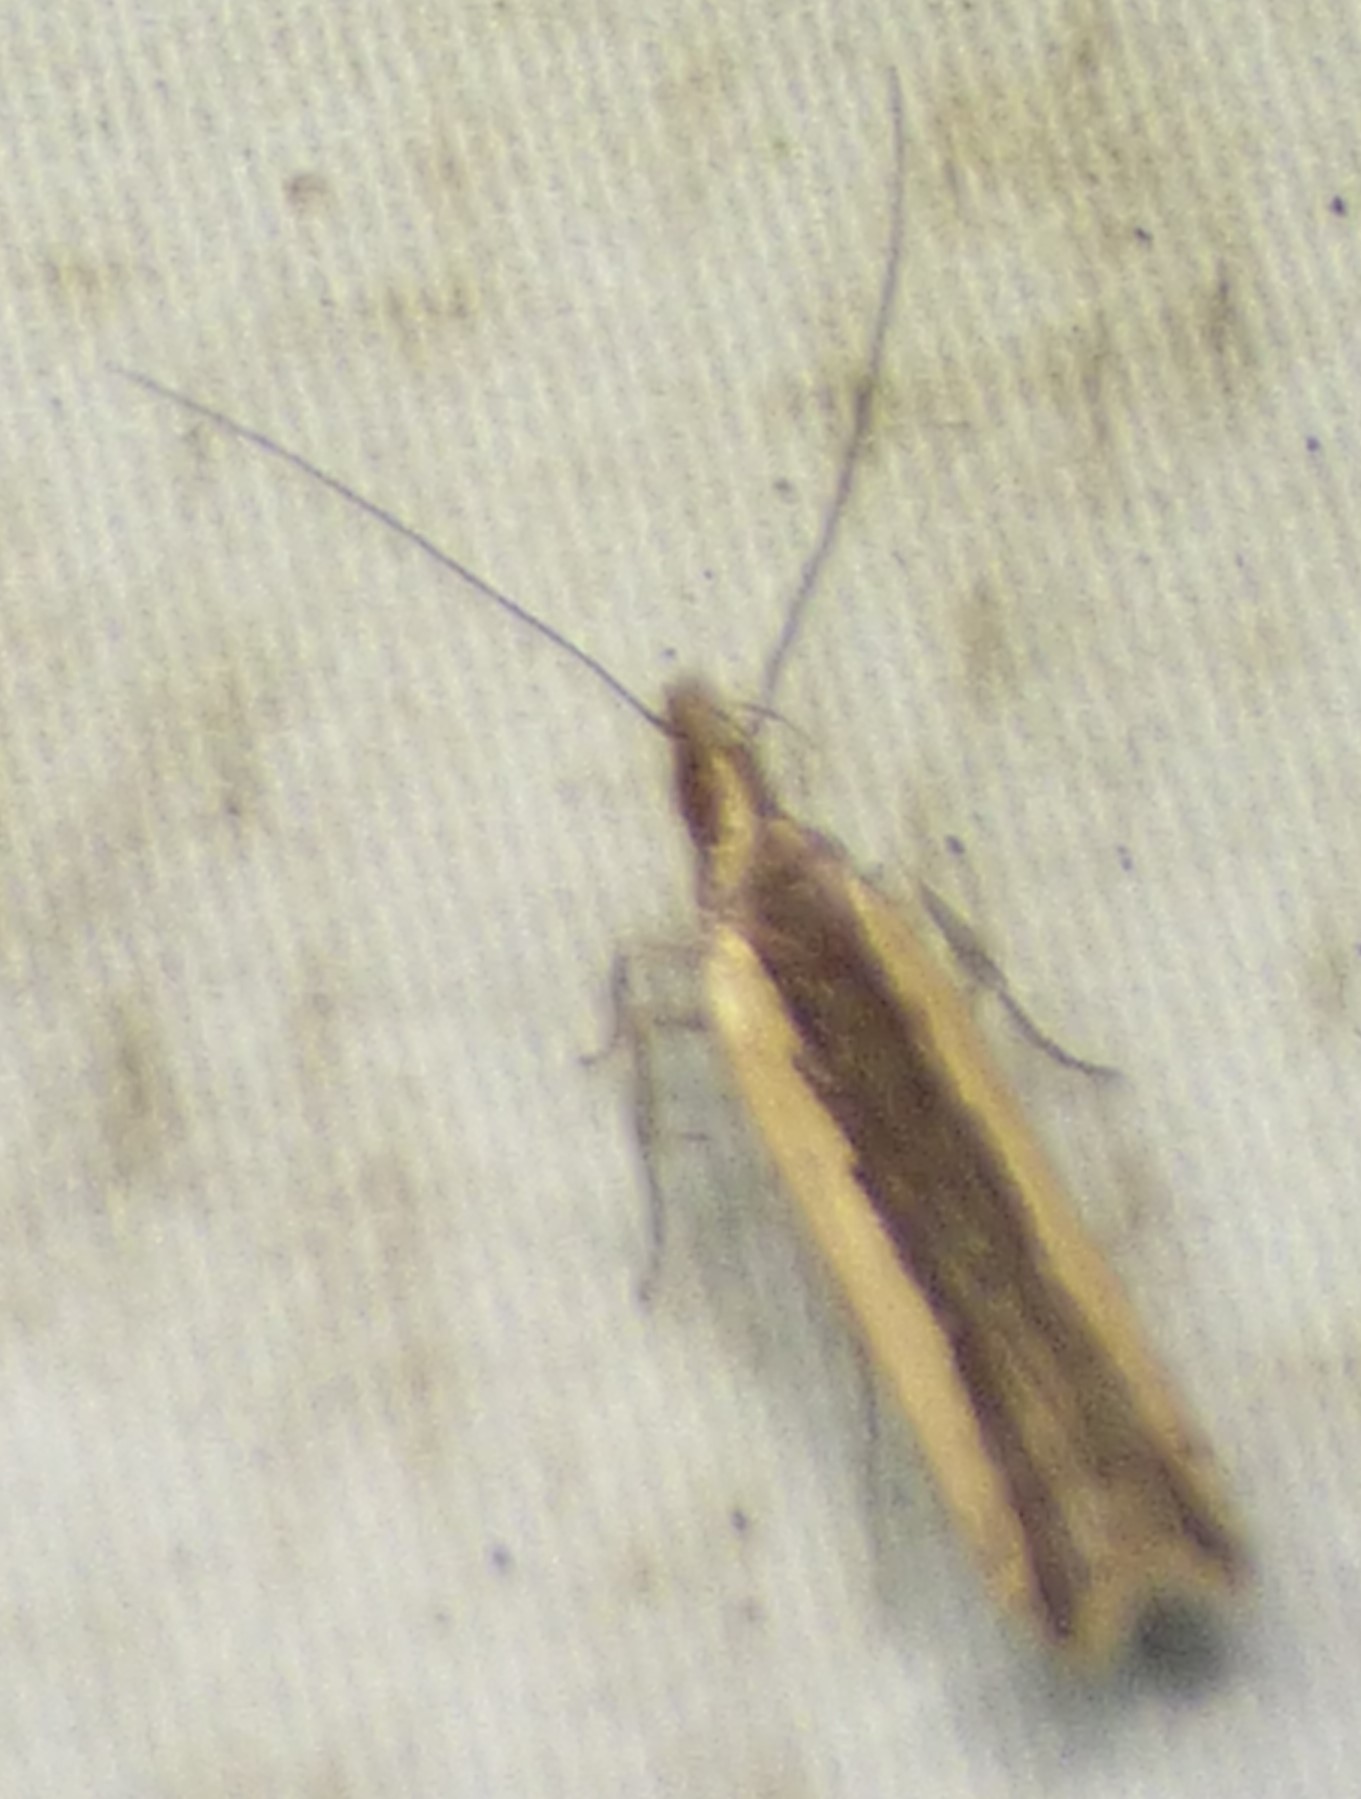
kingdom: Animalia
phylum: Arthropoda
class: Insecta
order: Lepidoptera
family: Gelechiidae
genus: Dichomeris
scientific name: Dichomeris ligulella
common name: Moth
